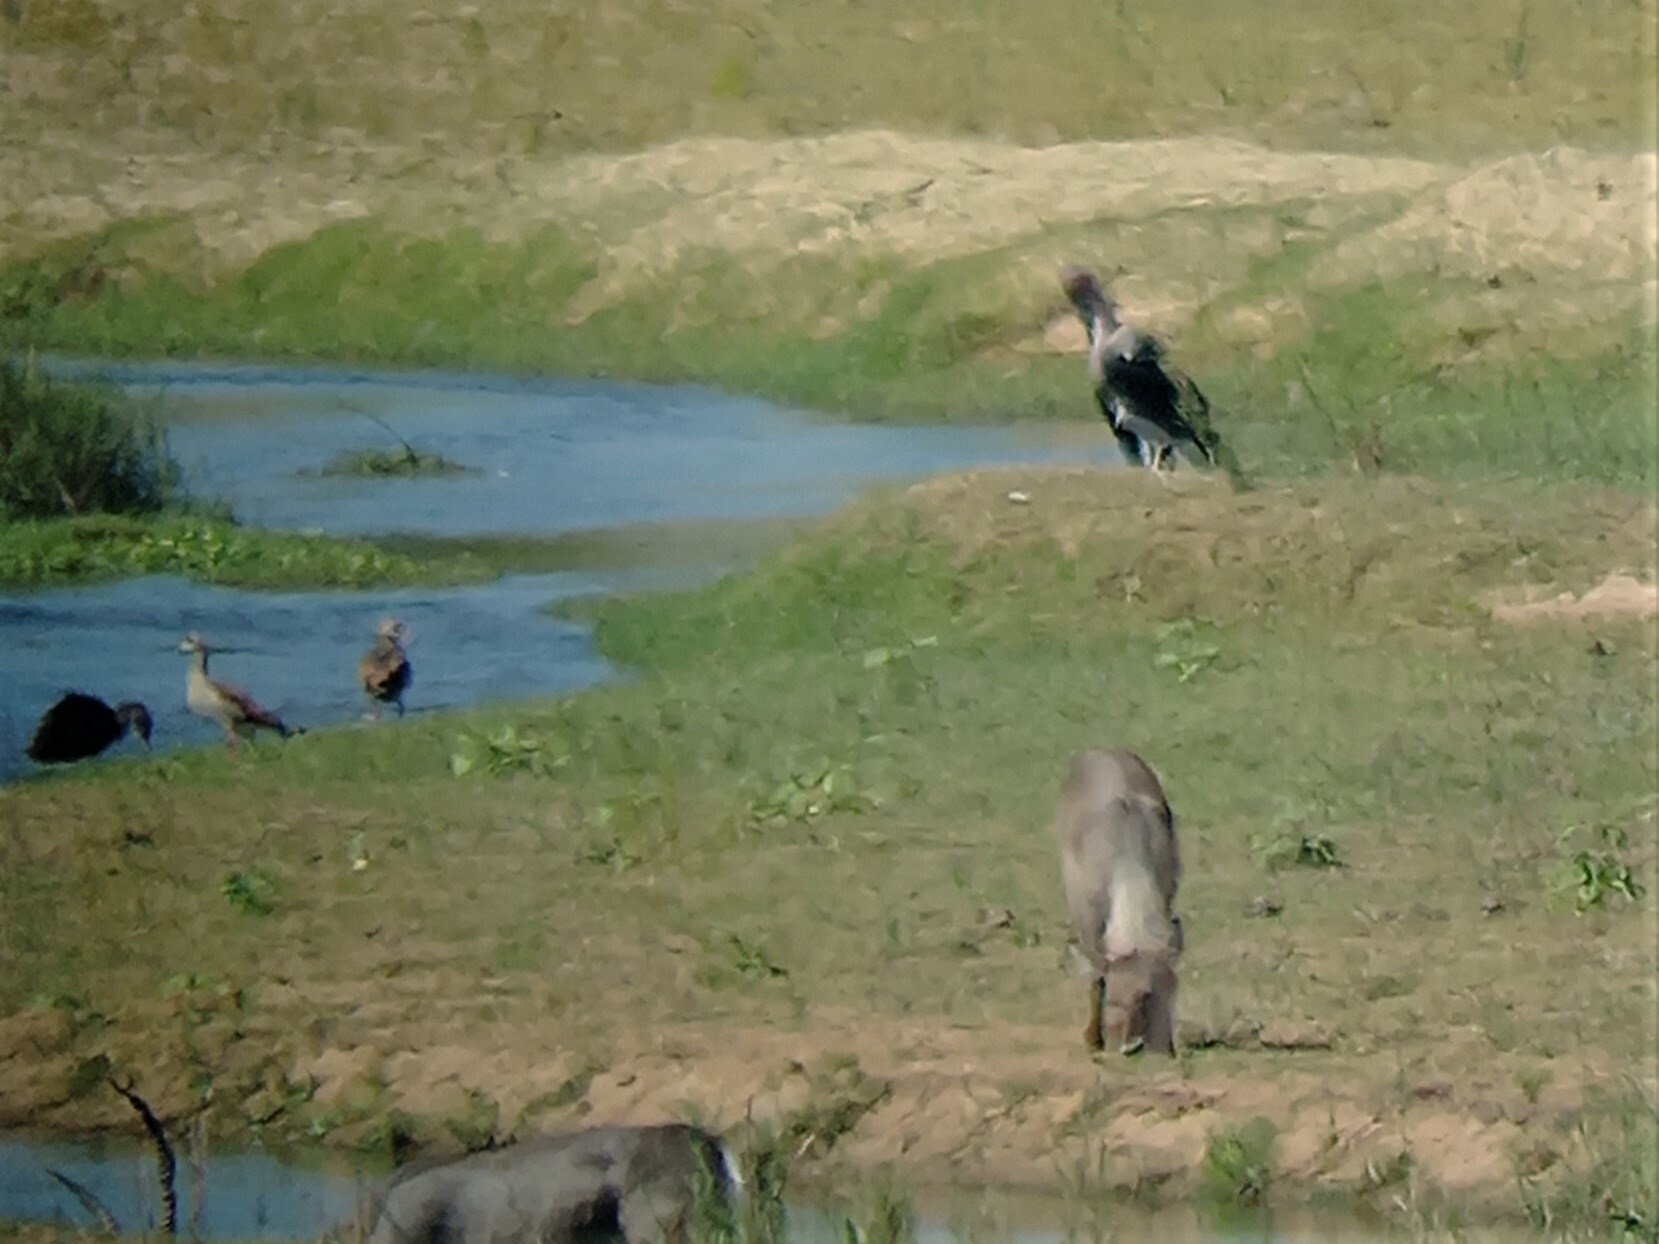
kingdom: Animalia
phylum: Chordata
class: Aves
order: Anseriformes
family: Anatidae
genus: Alopochen
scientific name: Alopochen aegyptiaca
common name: Egyptian goose
